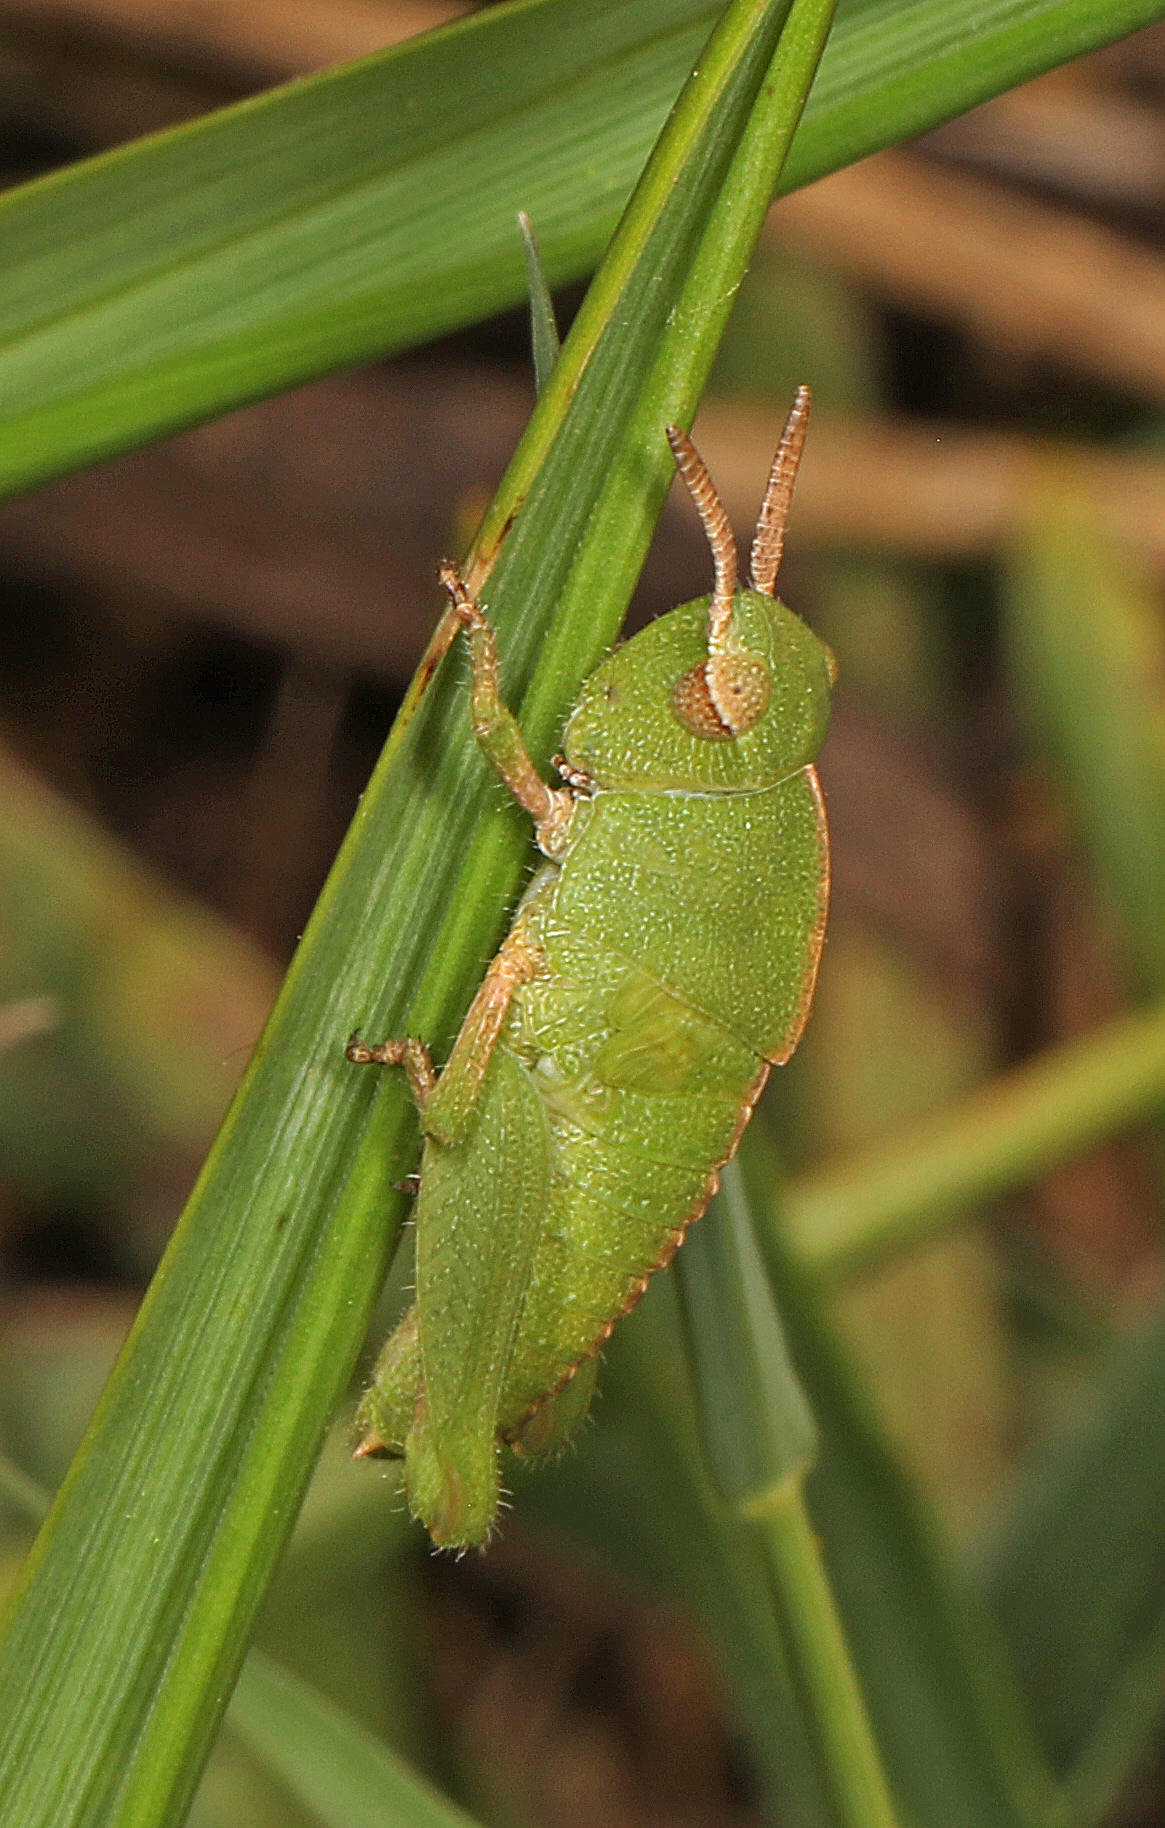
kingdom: Animalia
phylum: Arthropoda
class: Insecta
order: Orthoptera
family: Acrididae
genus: Chortophaga
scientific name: Chortophaga viridifasciata
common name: Green-striped grasshopper
